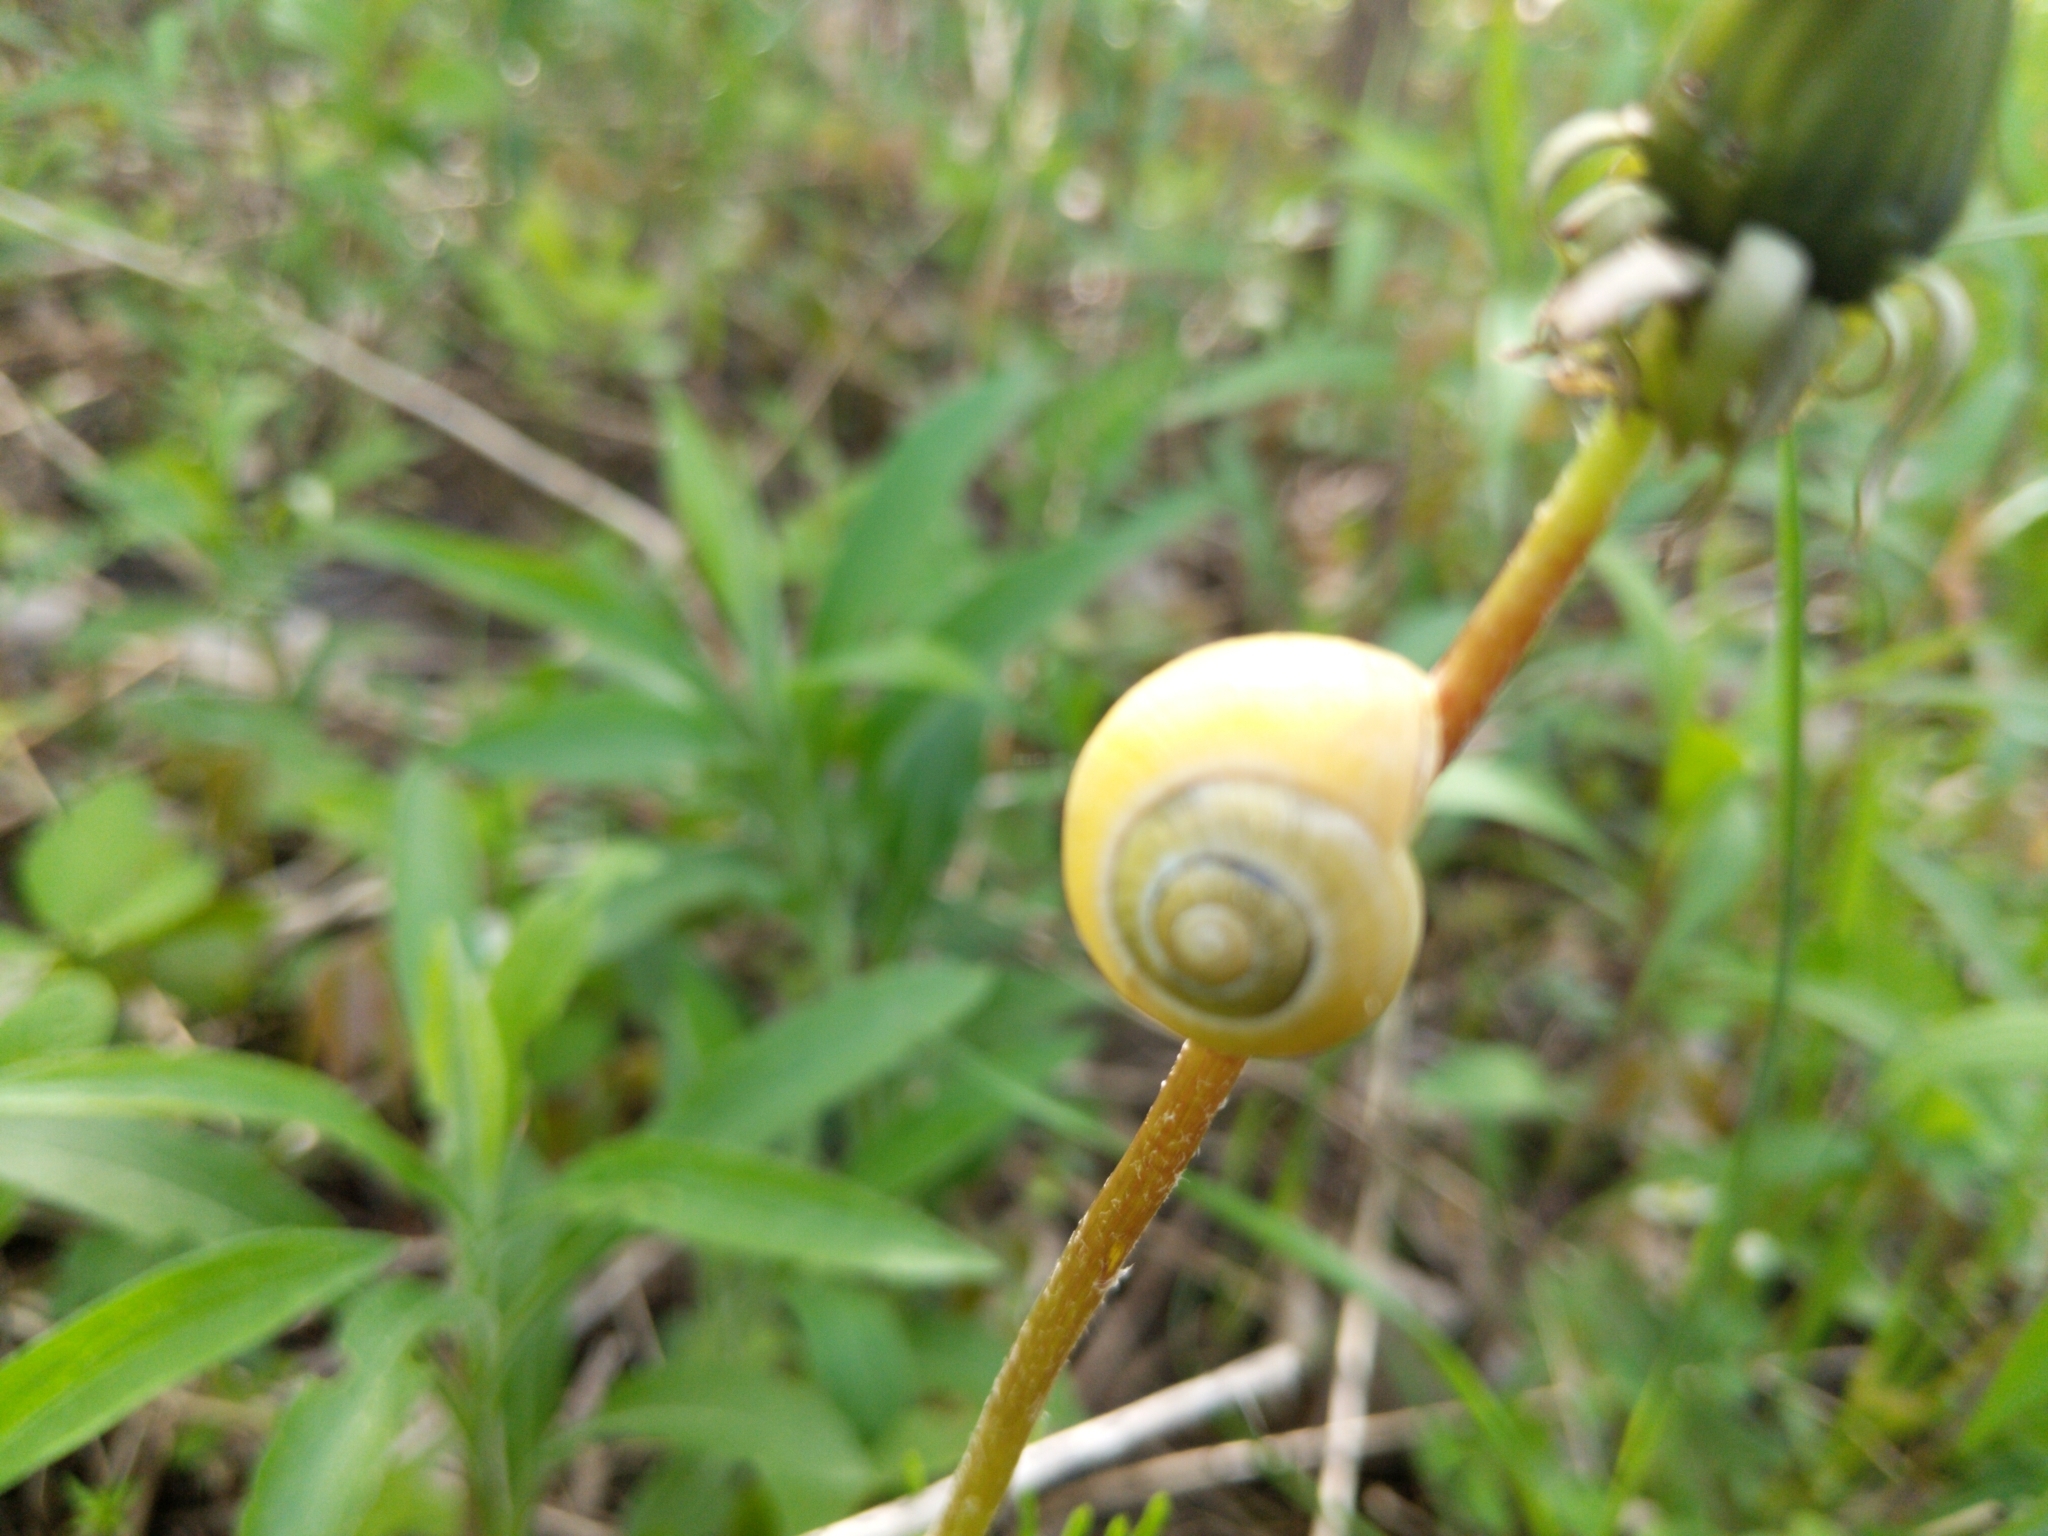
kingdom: Animalia
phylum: Mollusca
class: Gastropoda
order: Stylommatophora
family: Helicidae
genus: Cepaea
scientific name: Cepaea
